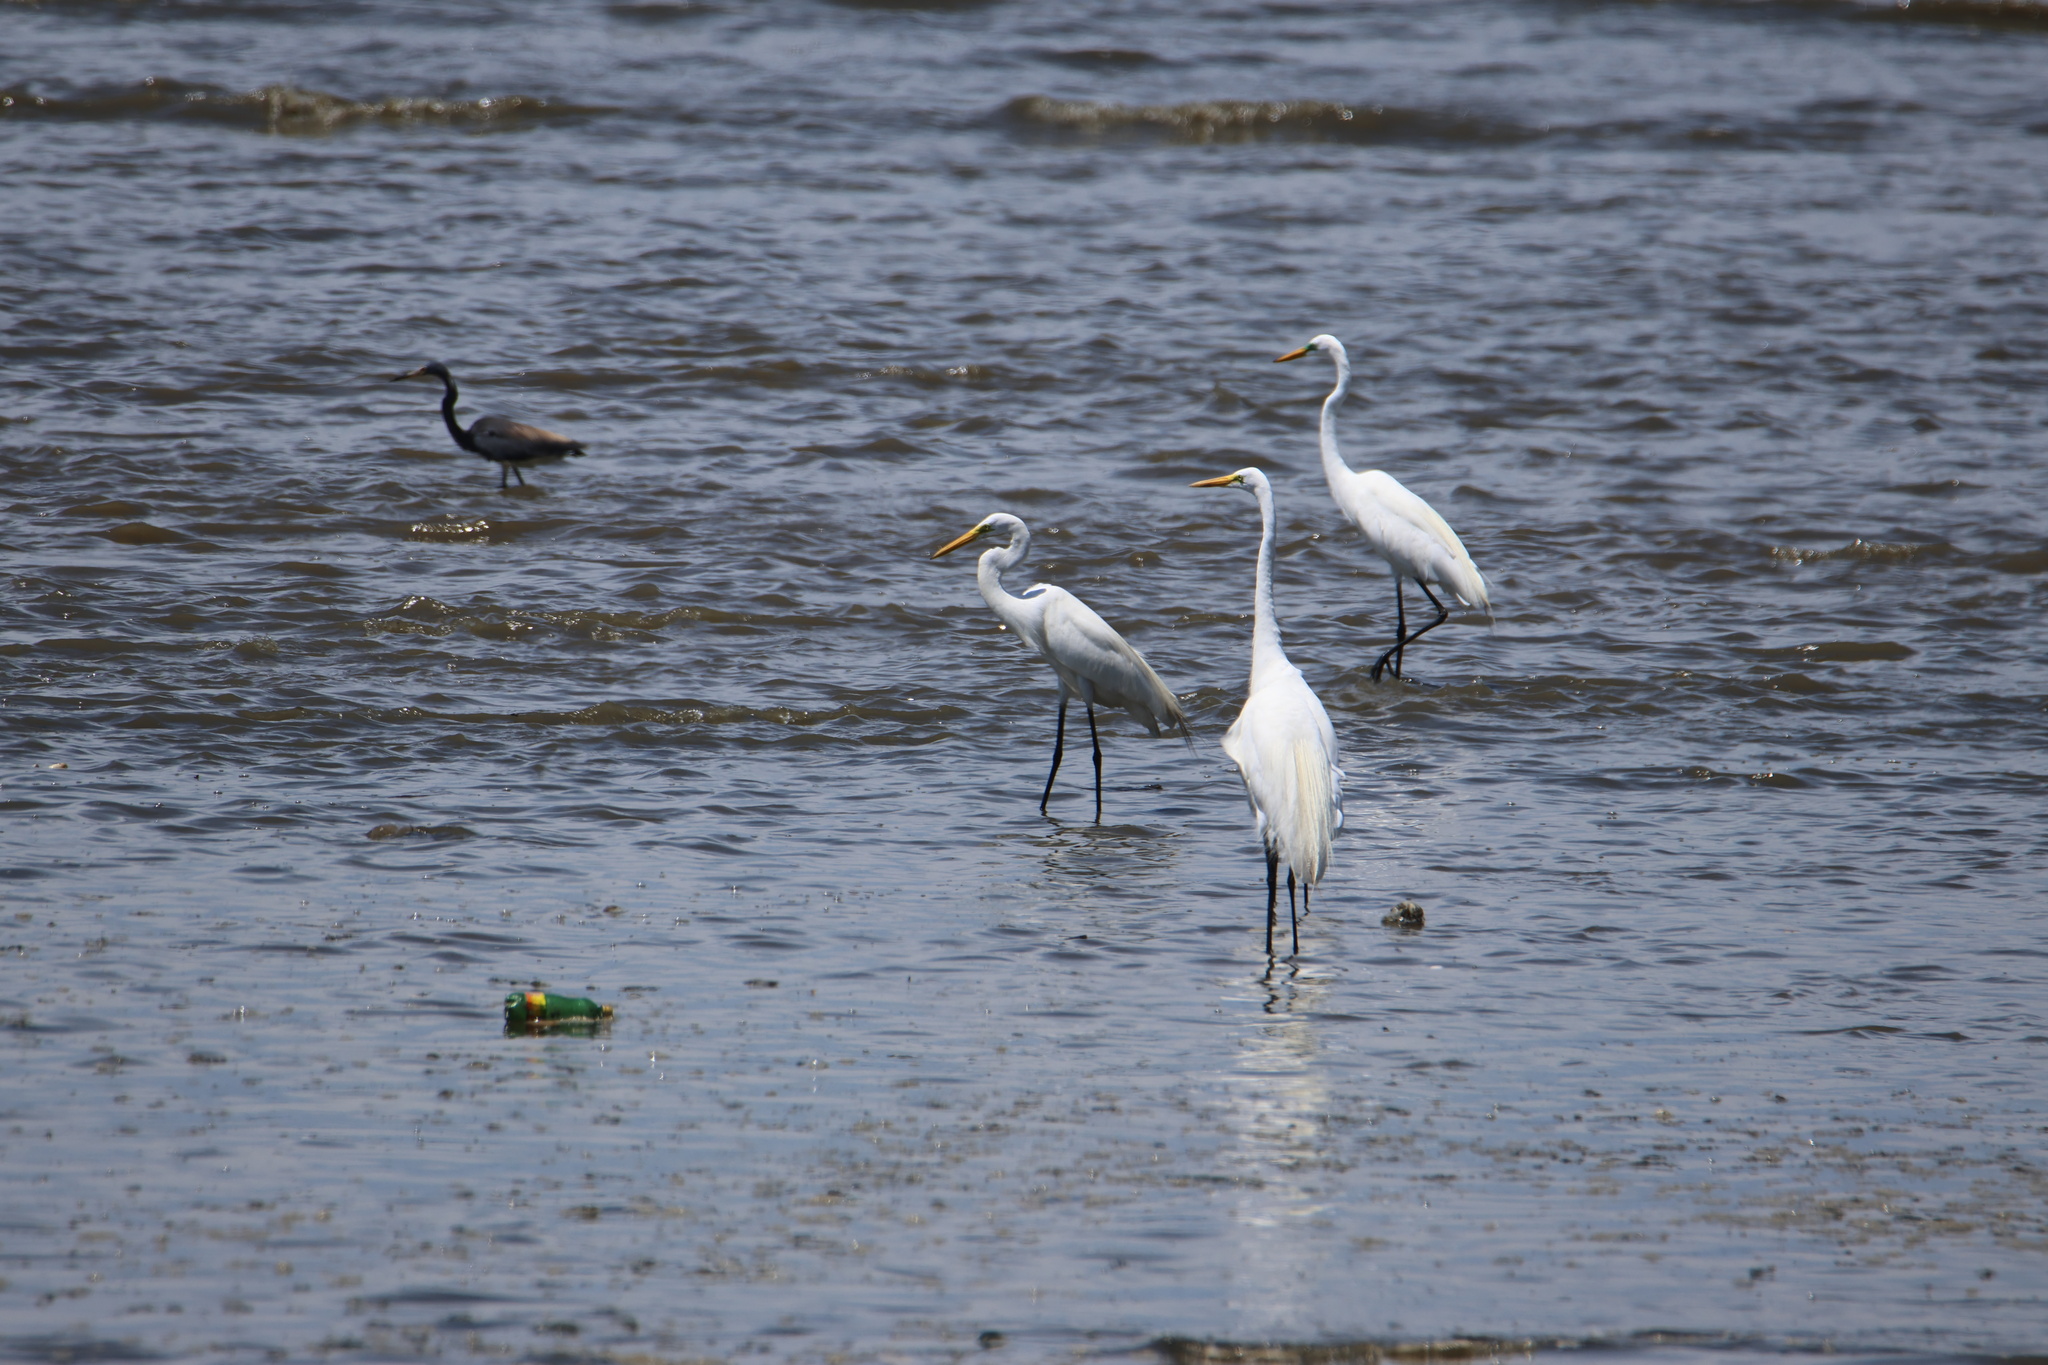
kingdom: Animalia
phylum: Chordata
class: Aves
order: Pelecaniformes
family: Ardeidae
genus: Ardea
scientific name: Ardea alba
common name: Great egret
